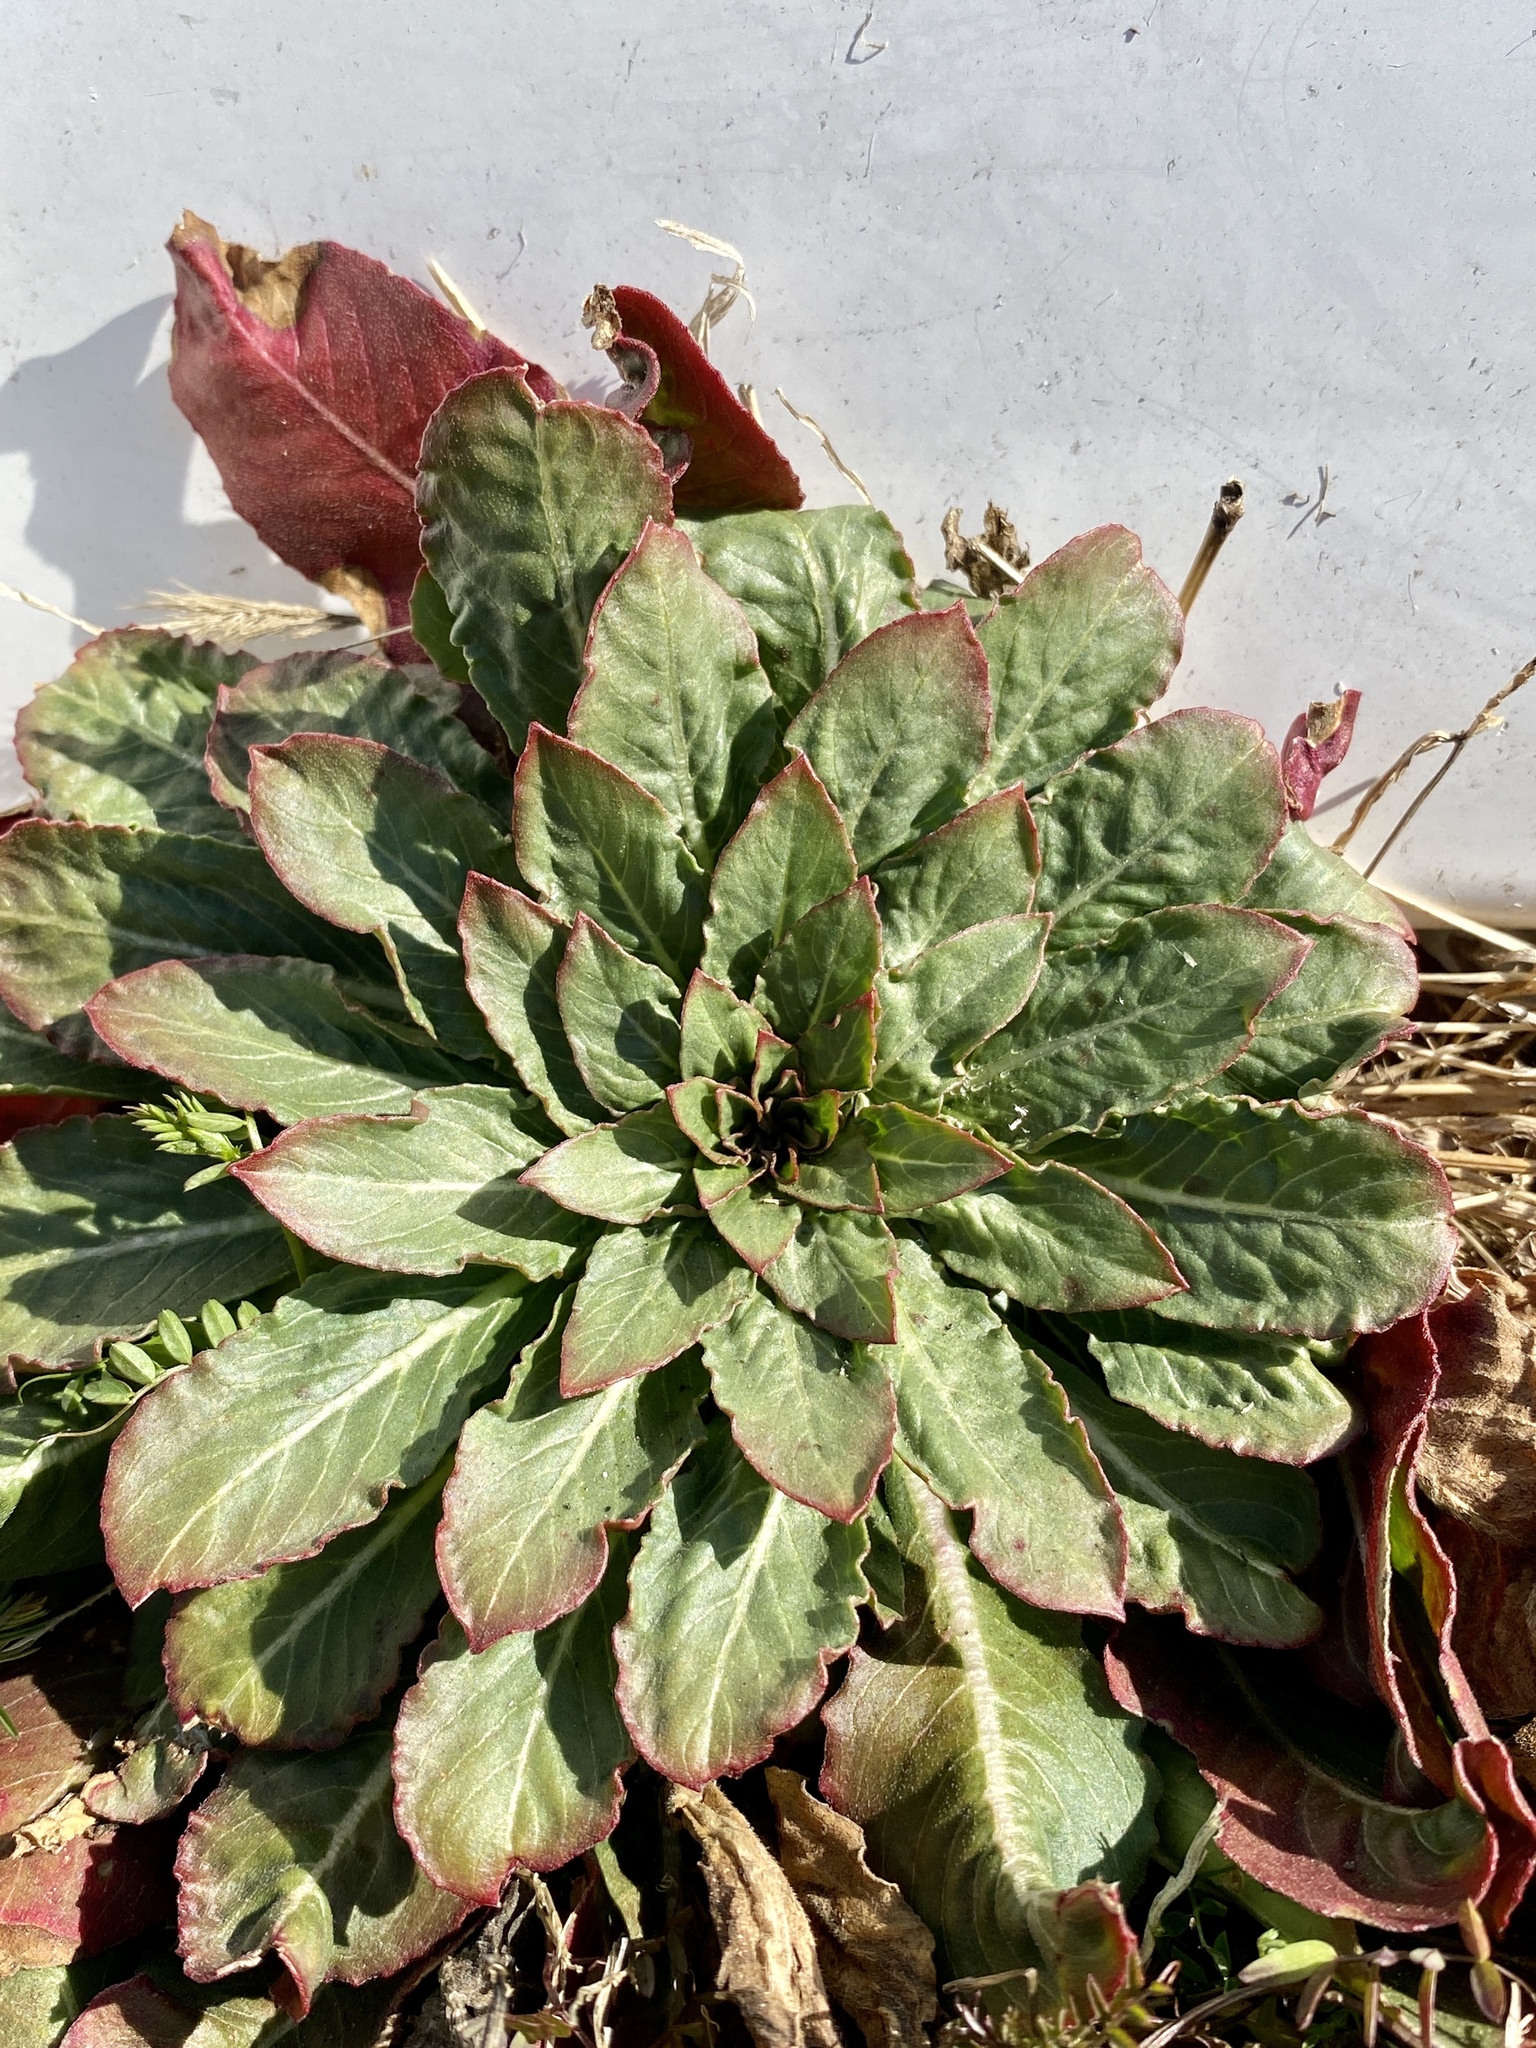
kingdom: Plantae
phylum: Tracheophyta
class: Magnoliopsida
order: Myrtales
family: Onagraceae
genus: Oenothera
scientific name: Oenothera biennis
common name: Common evening-primrose
